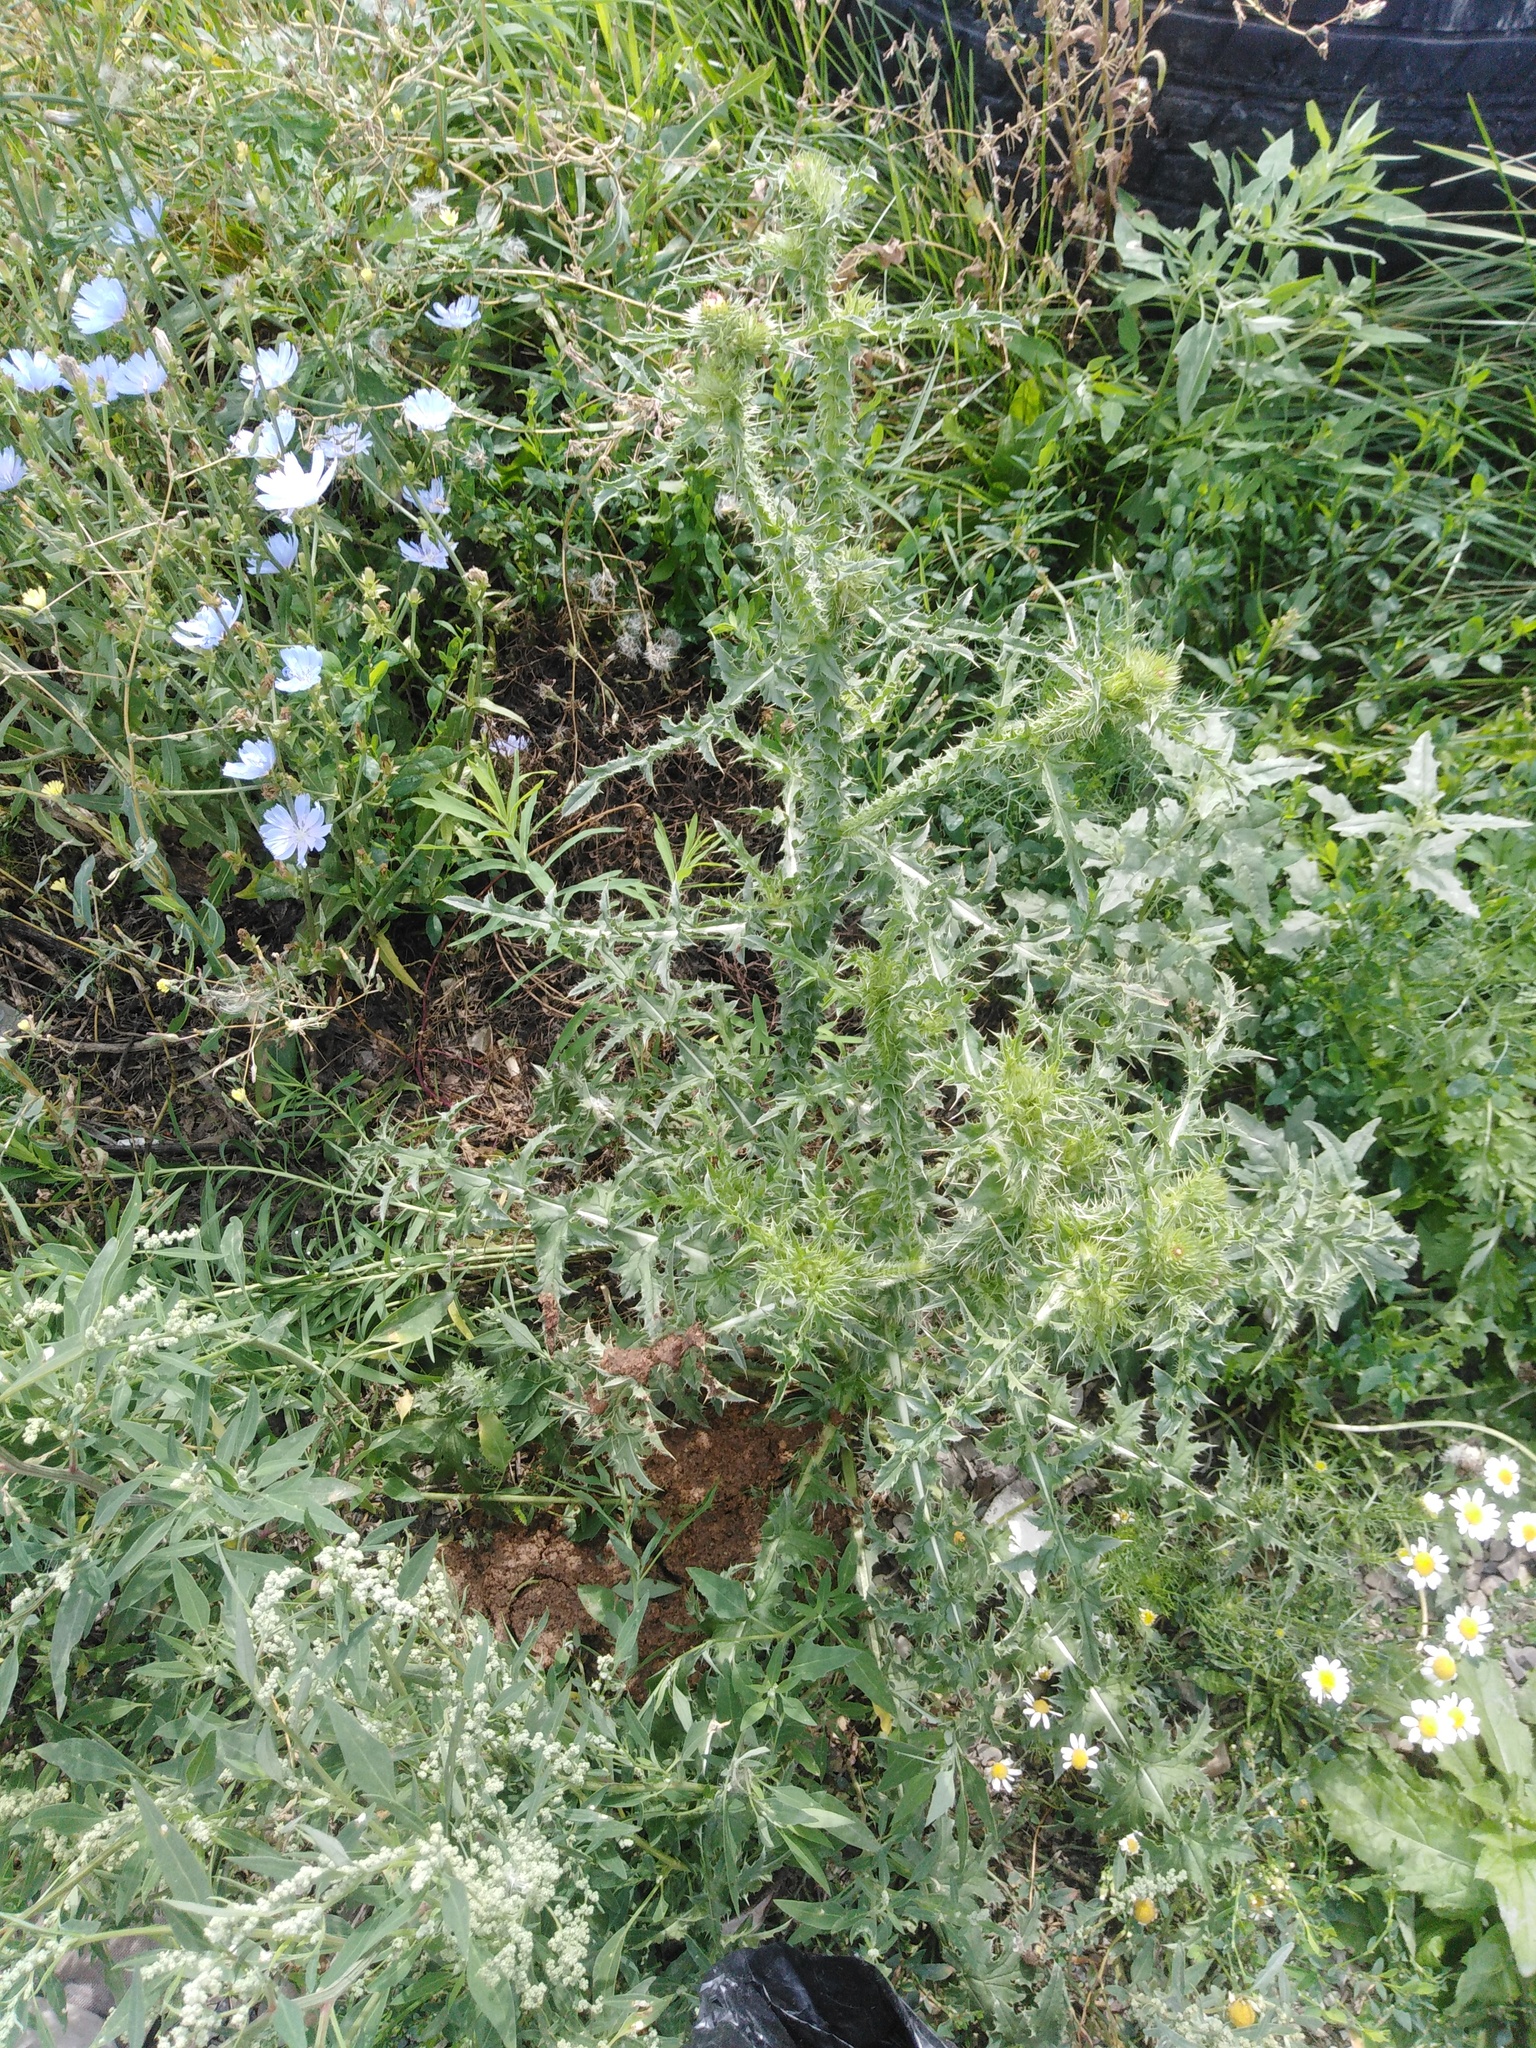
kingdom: Plantae
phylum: Tracheophyta
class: Magnoliopsida
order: Asterales
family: Asteraceae
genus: Carduus
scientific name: Carduus acanthoides
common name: Plumeless thistle
